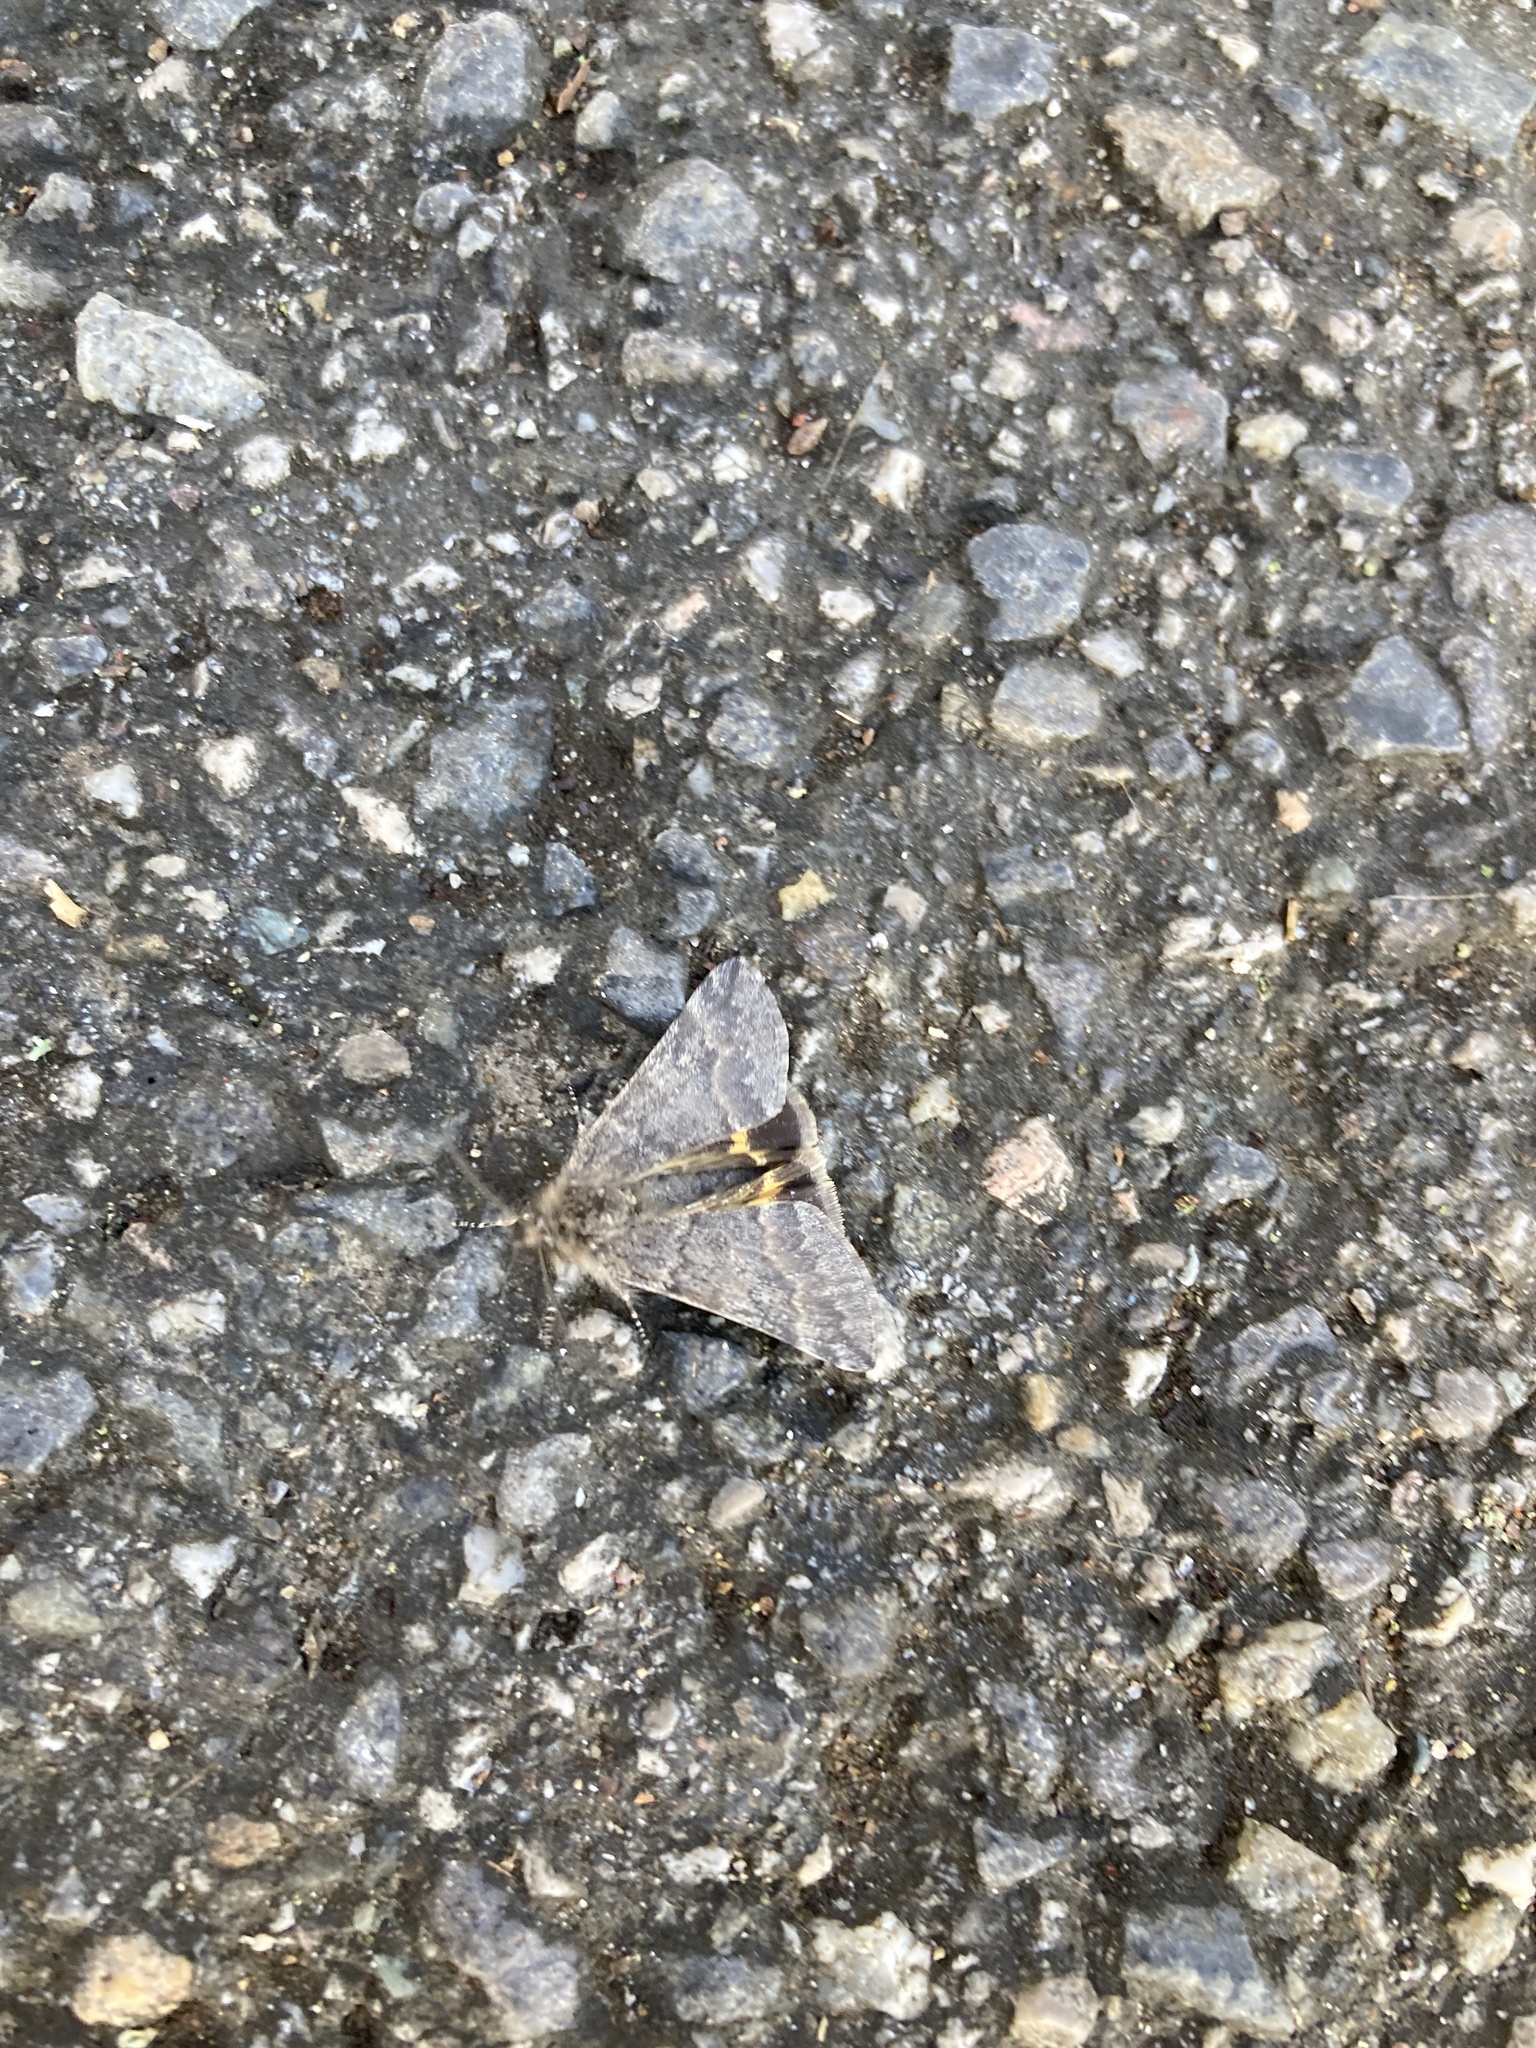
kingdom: Animalia
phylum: Arthropoda
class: Insecta
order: Lepidoptera
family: Geometridae
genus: Boudinotiana
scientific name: Boudinotiana puella
